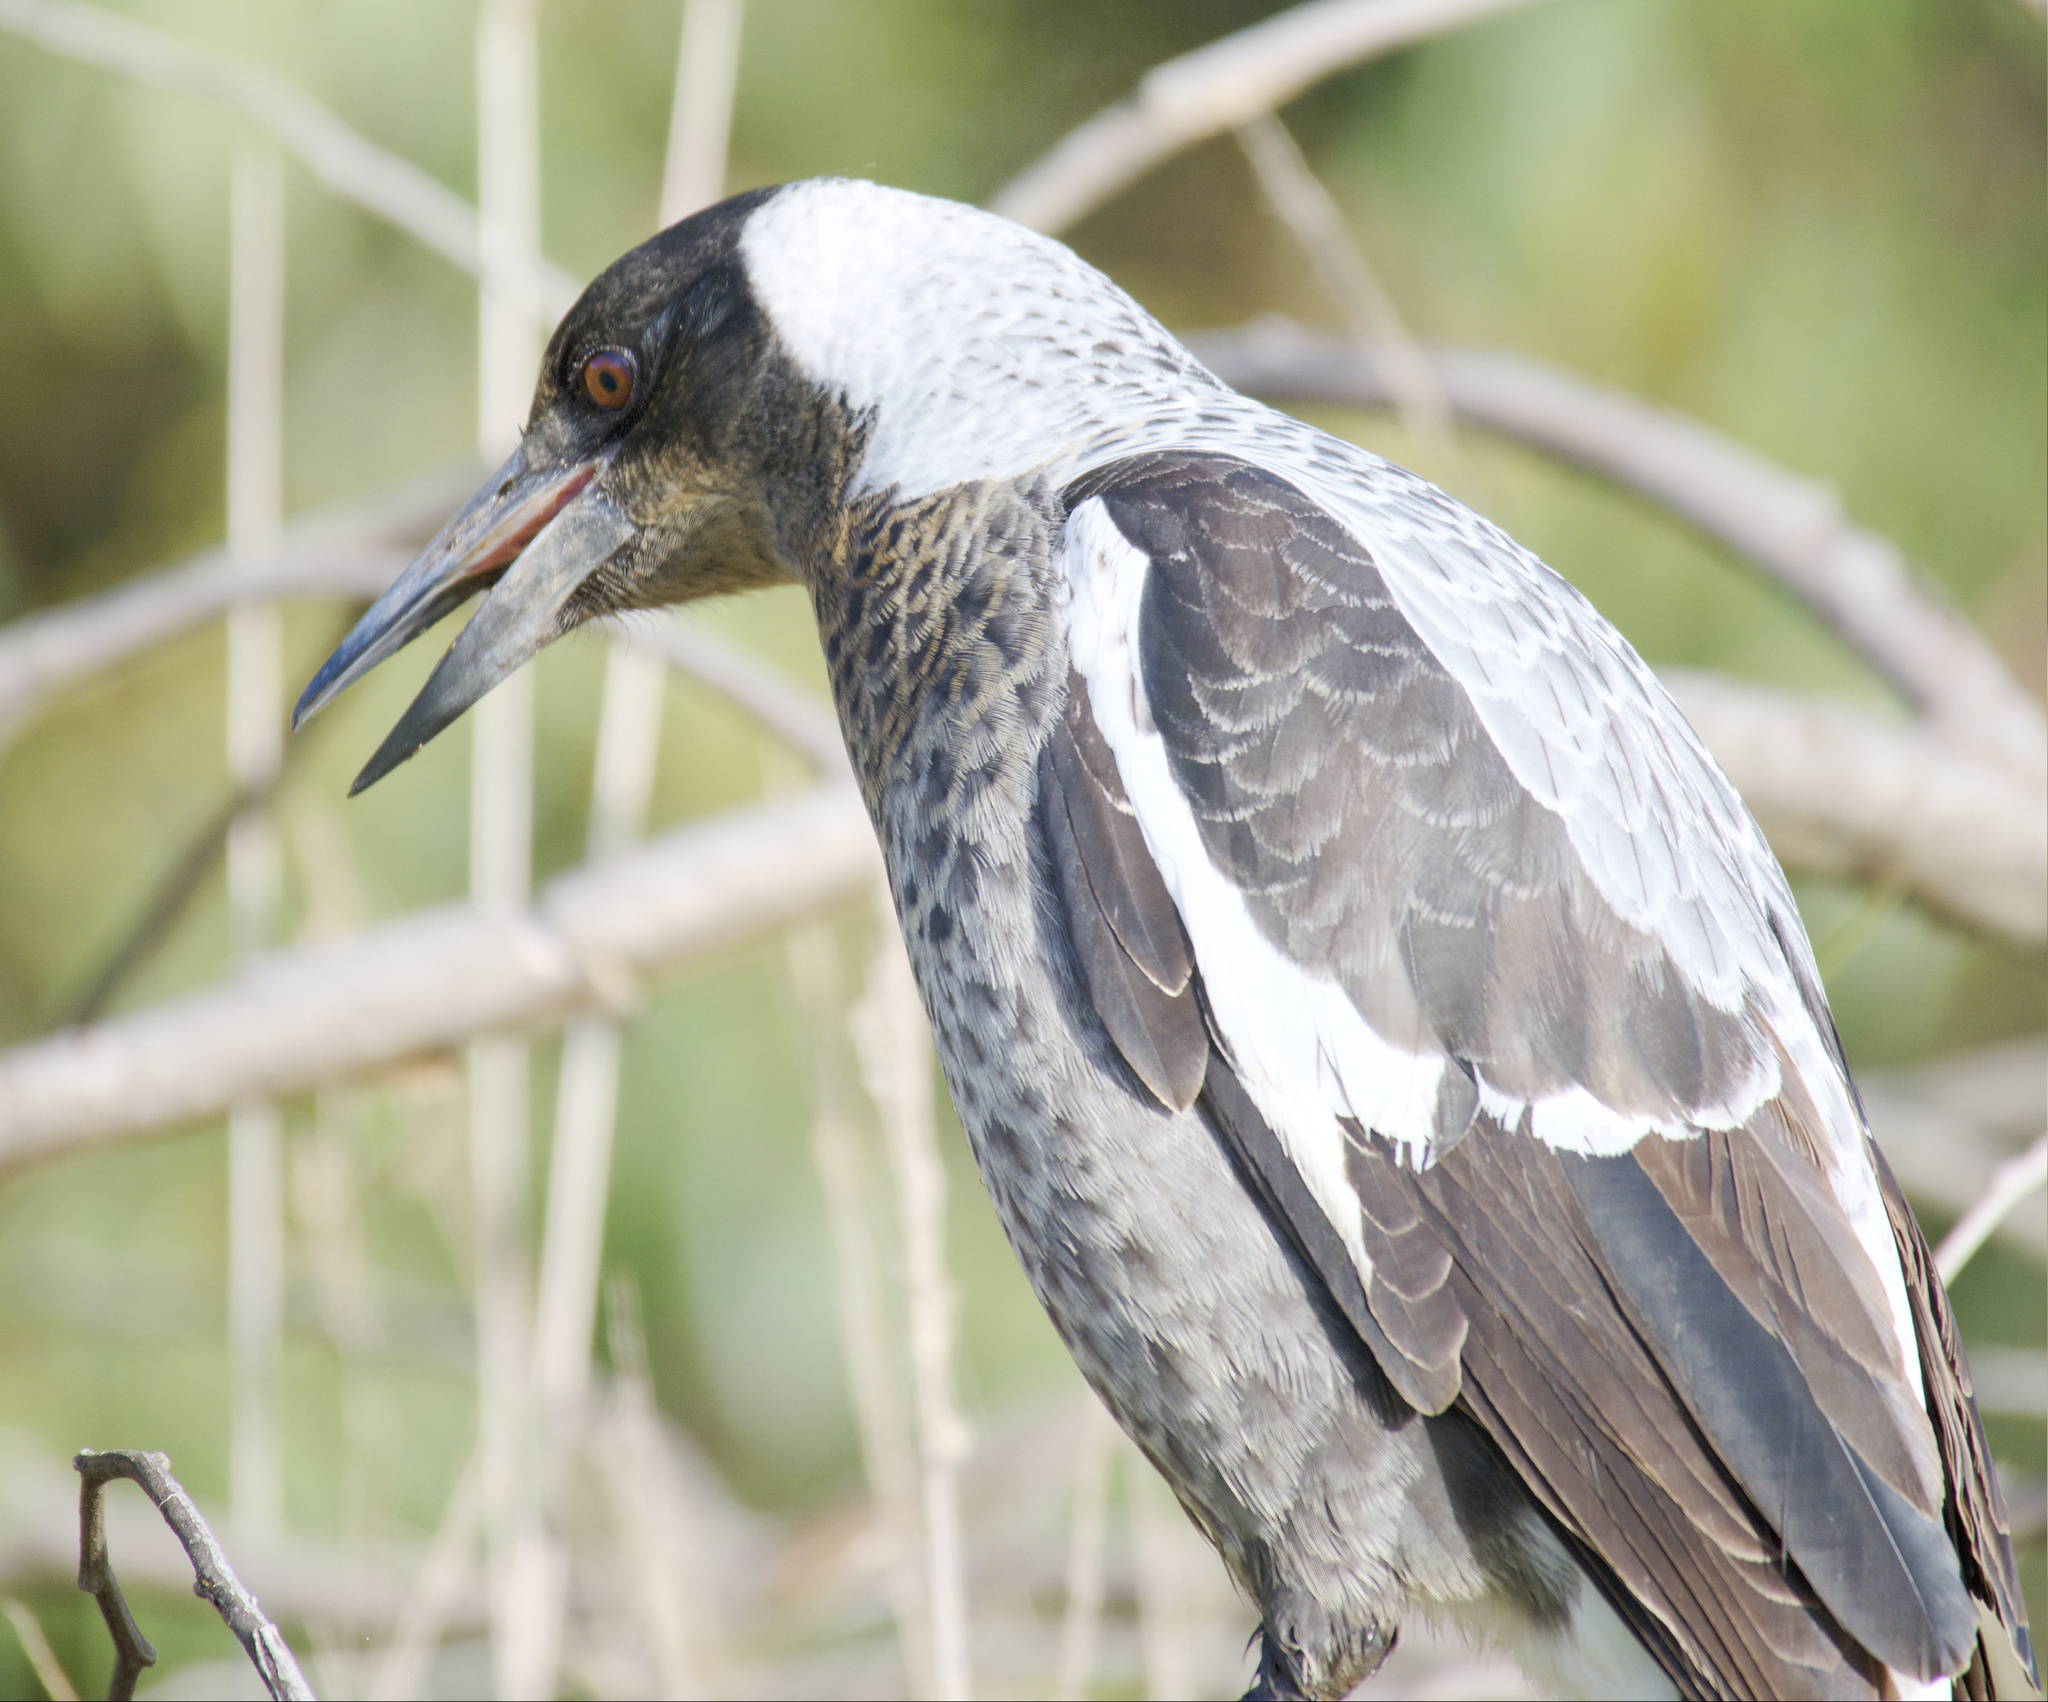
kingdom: Animalia
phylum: Chordata
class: Aves
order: Passeriformes
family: Cracticidae
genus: Gymnorhina
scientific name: Gymnorhina tibicen
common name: Australian magpie
